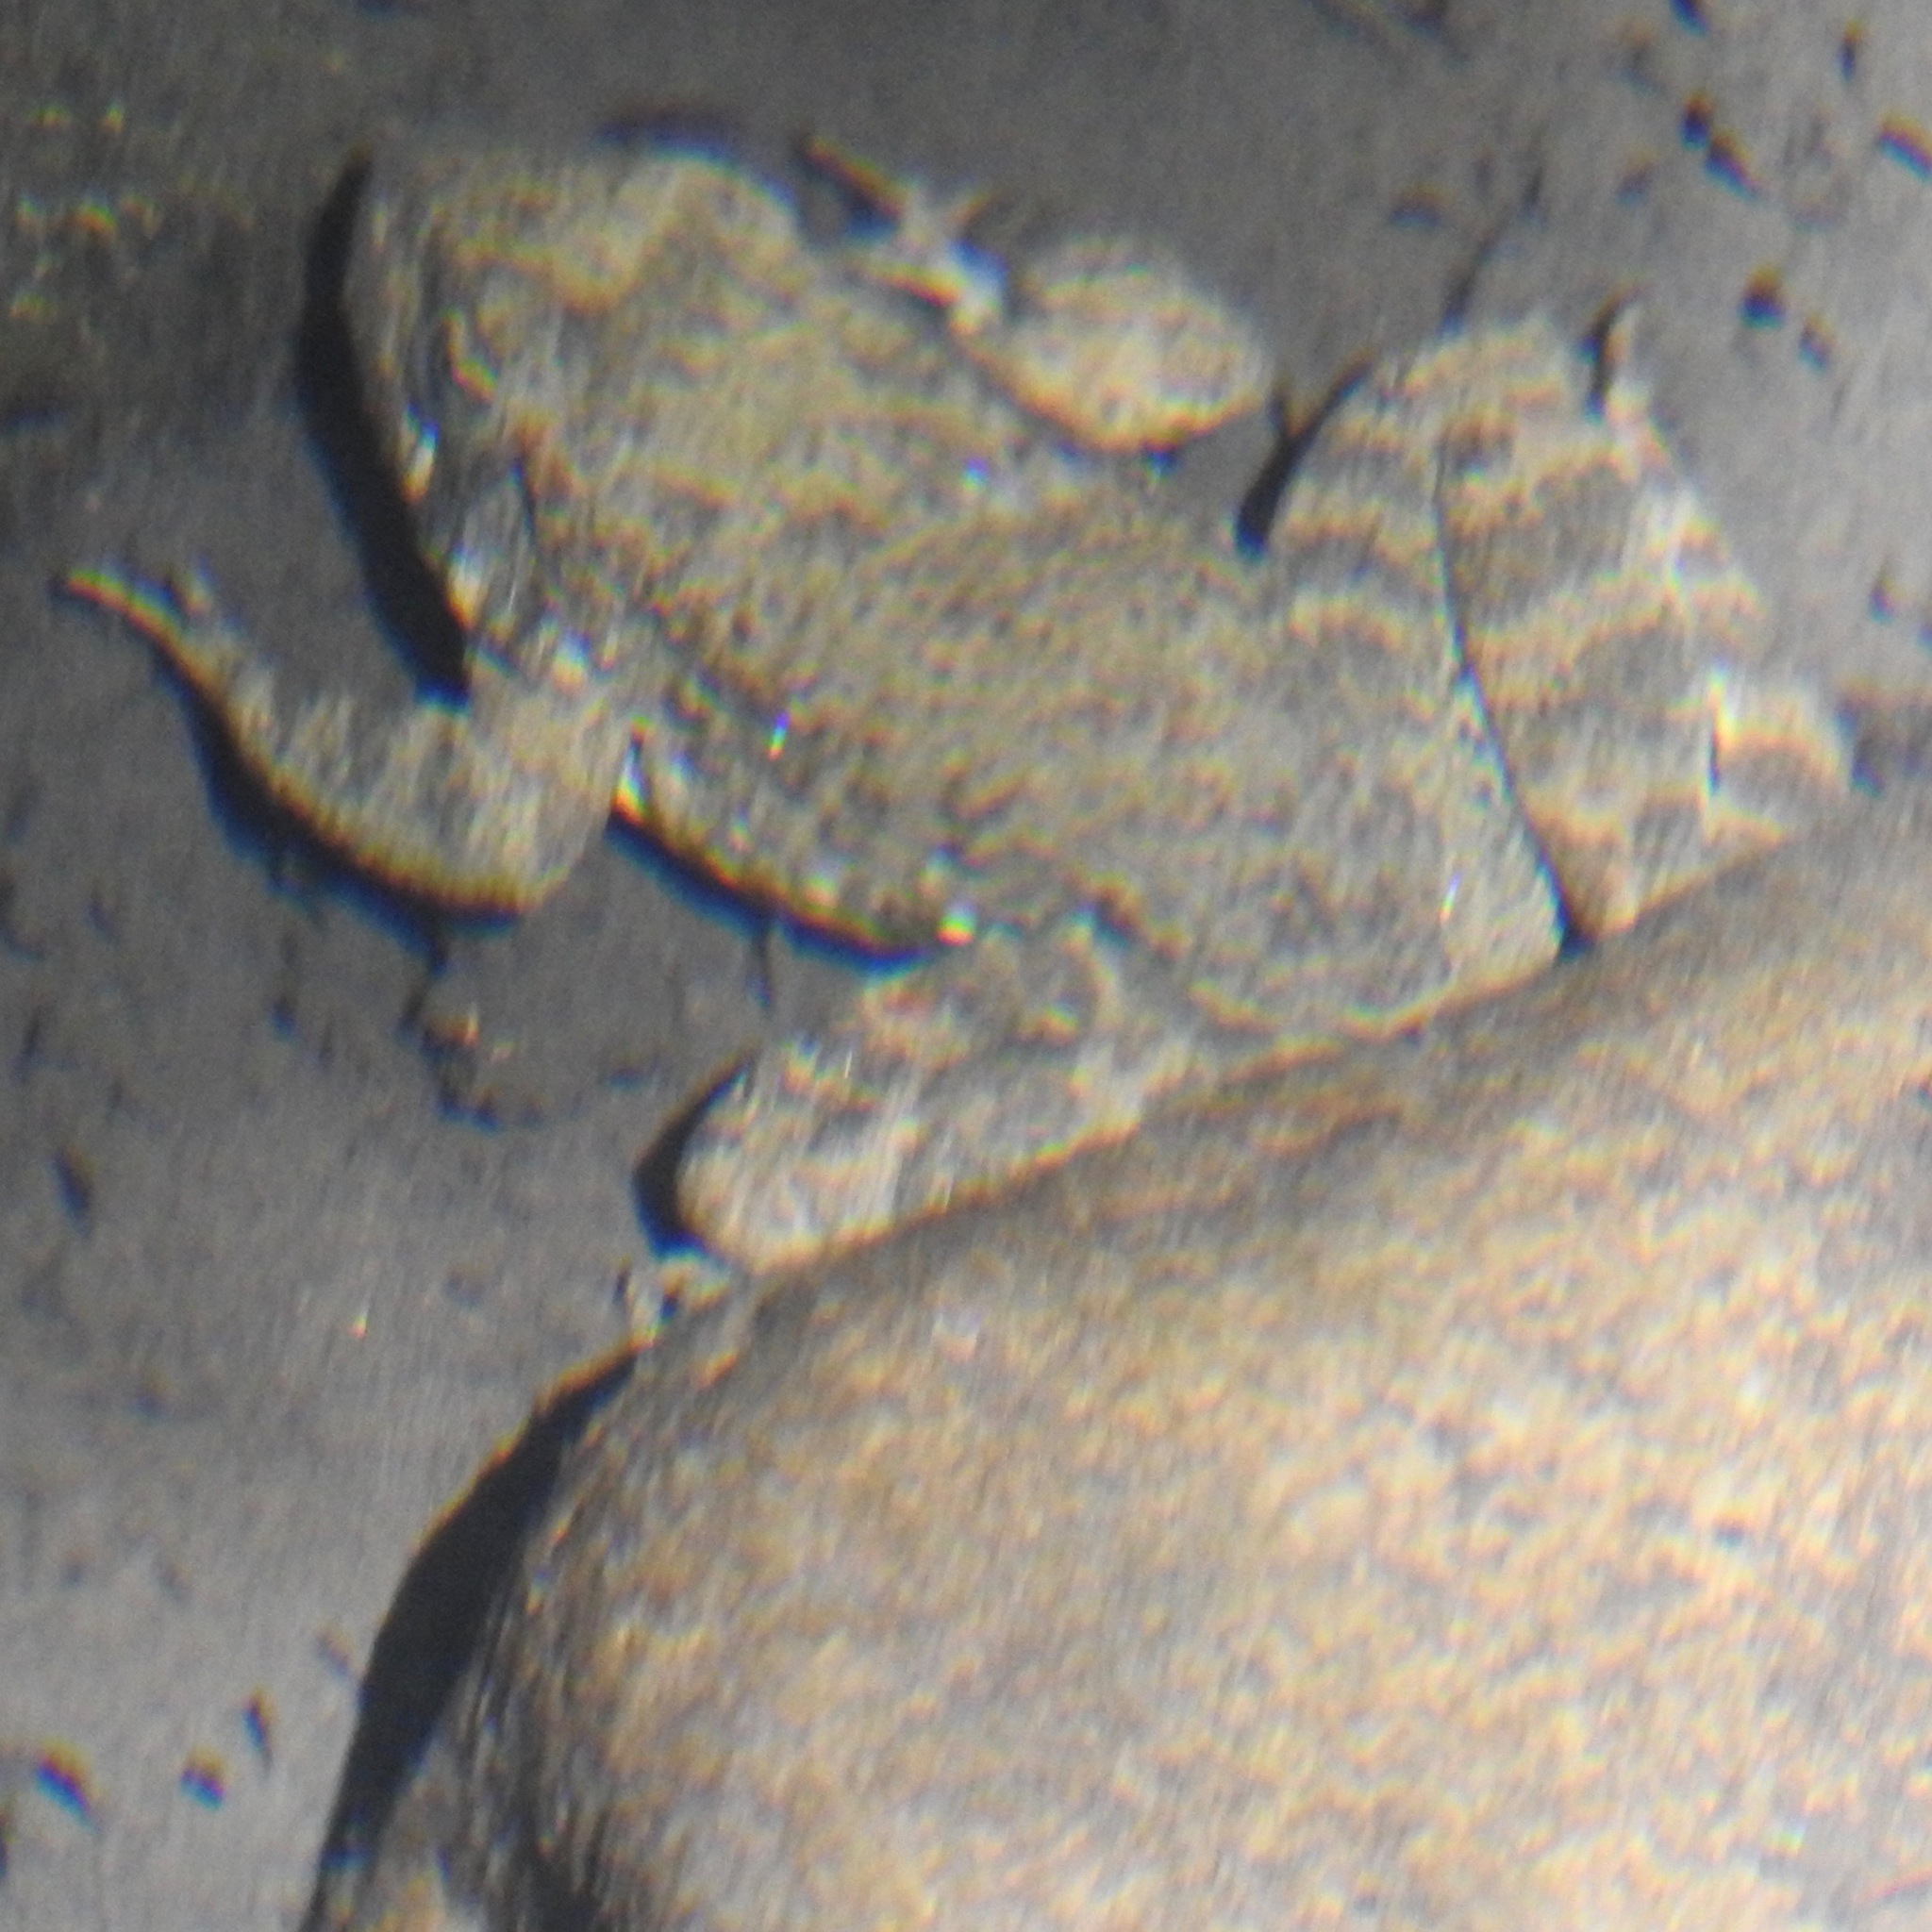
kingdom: Animalia
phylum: Chordata
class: Amphibia
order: Anura
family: Ranidae
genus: Rana
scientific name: Rana boylii
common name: Foothill yellow-legged frog
